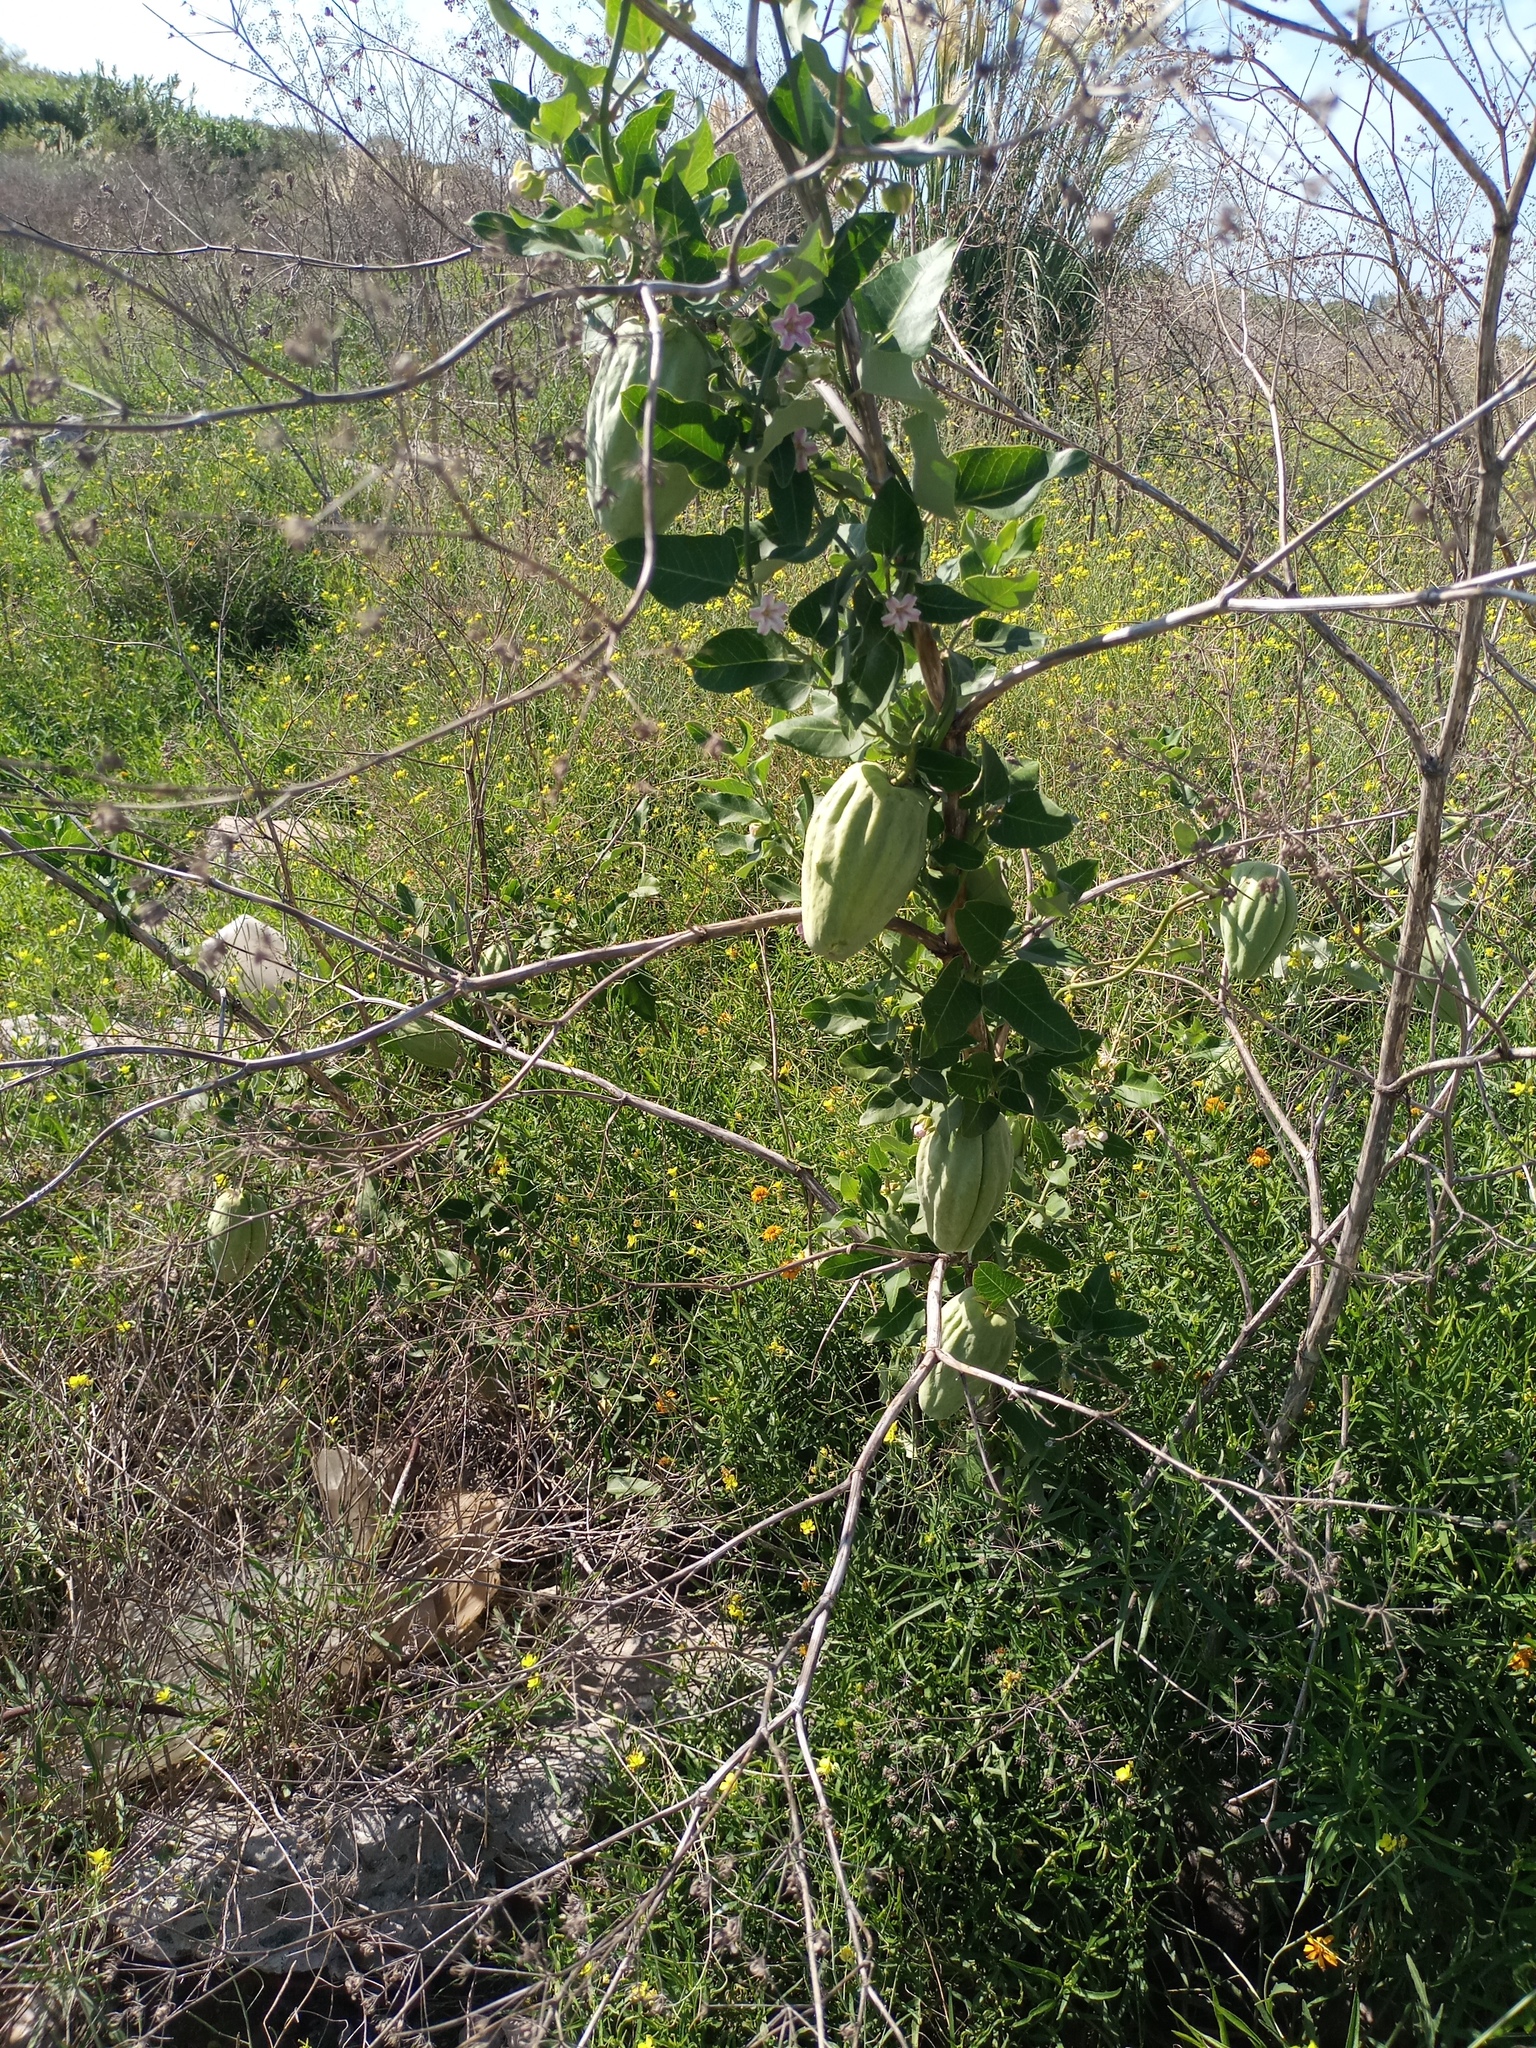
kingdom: Plantae
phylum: Tracheophyta
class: Magnoliopsida
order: Gentianales
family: Apocynaceae
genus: Araujia
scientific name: Araujia sericifera
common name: White bladderflower
